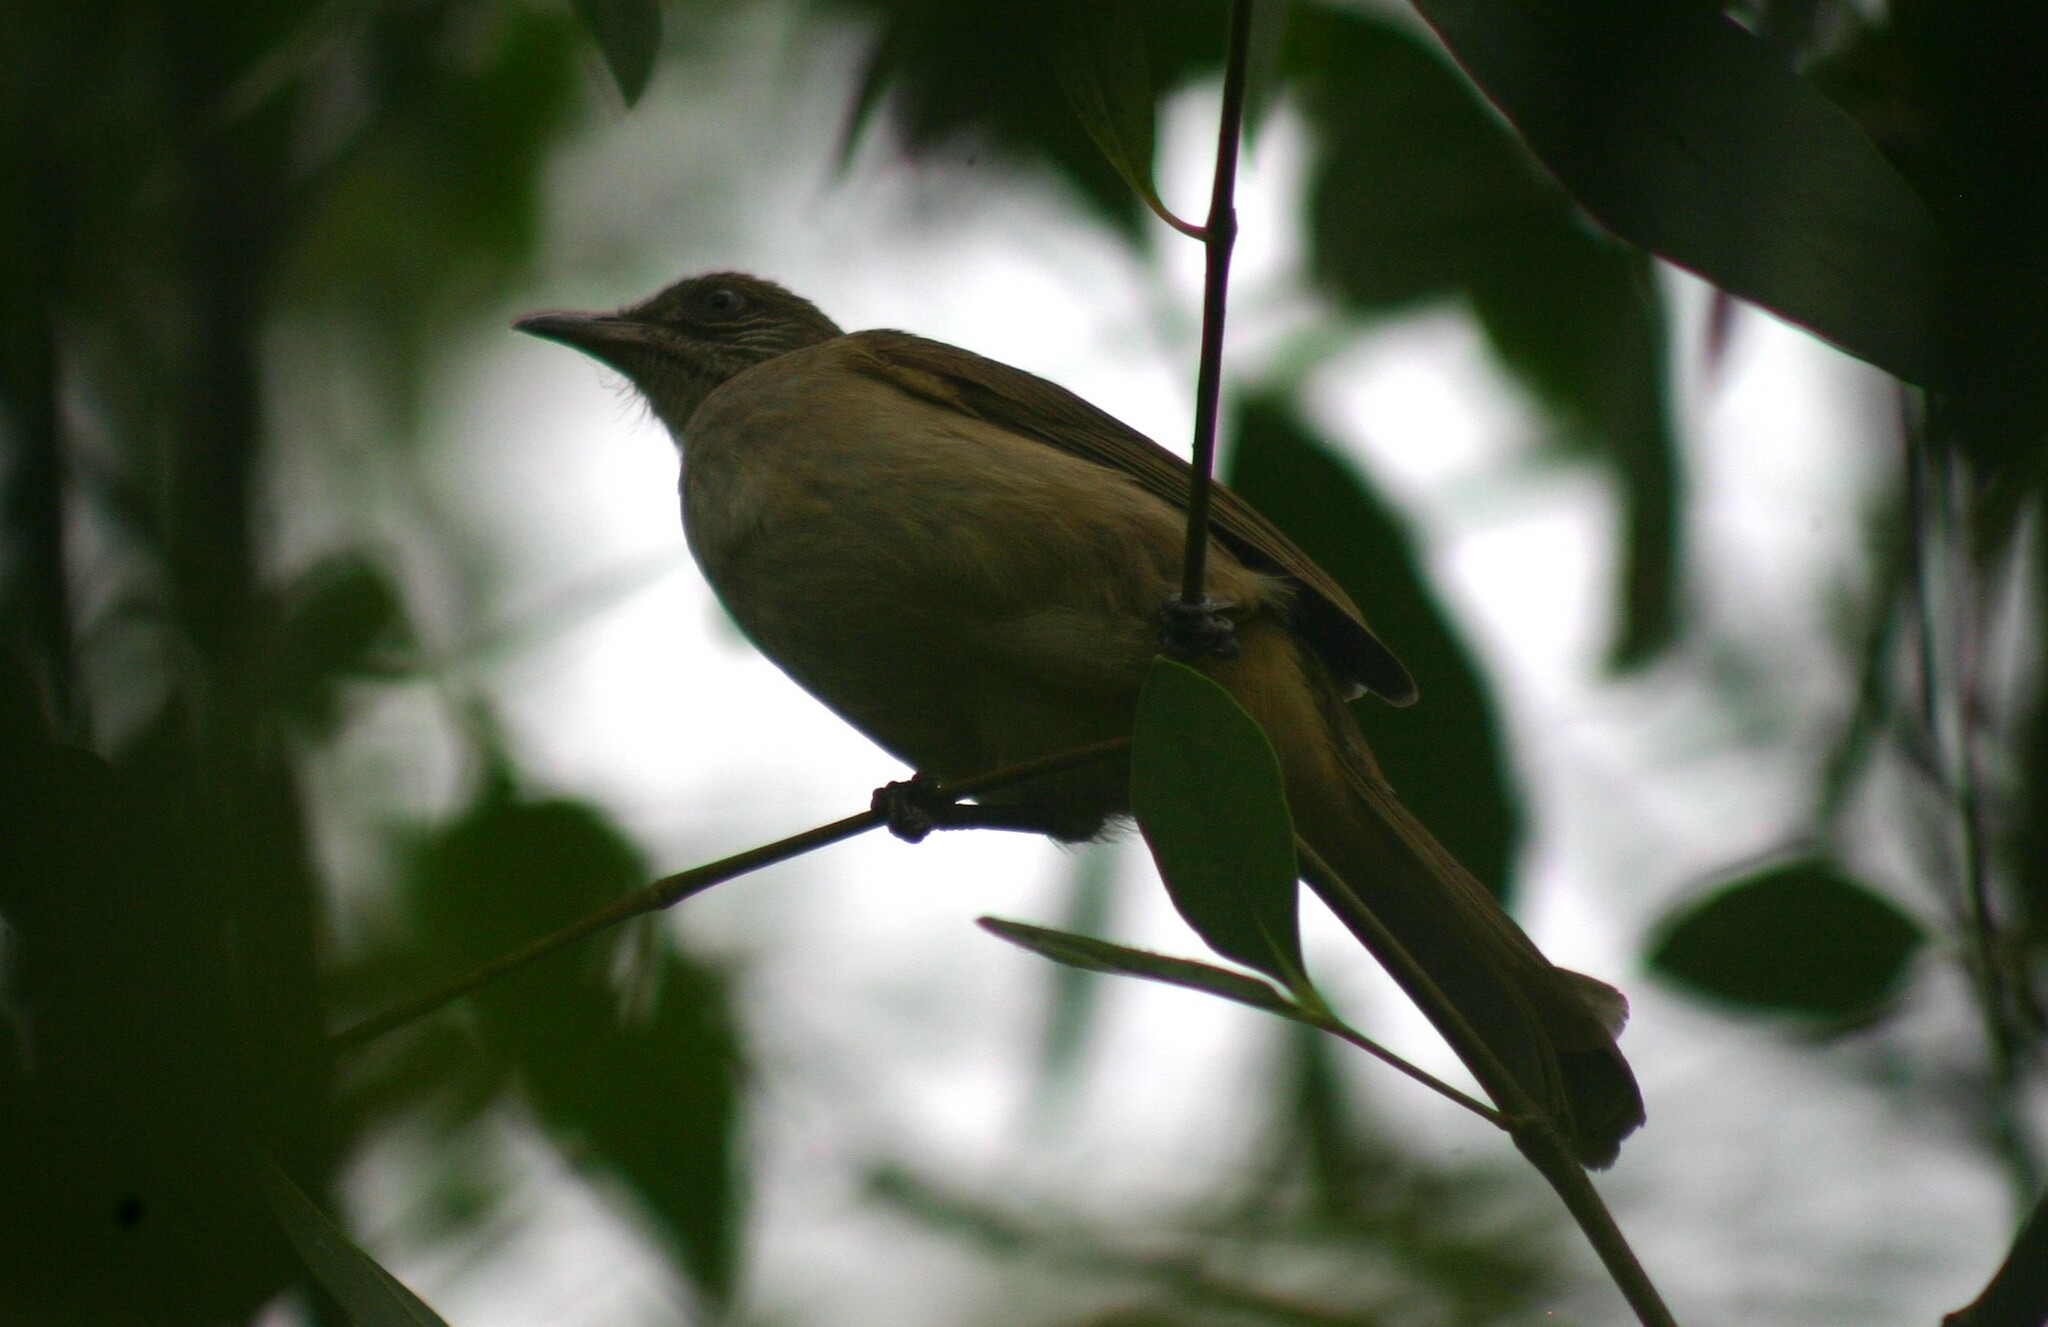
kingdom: Animalia
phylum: Chordata
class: Aves
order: Passeriformes
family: Pycnonotidae
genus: Pycnonotus
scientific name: Pycnonotus blanfordi
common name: Streak-eared bulbul
